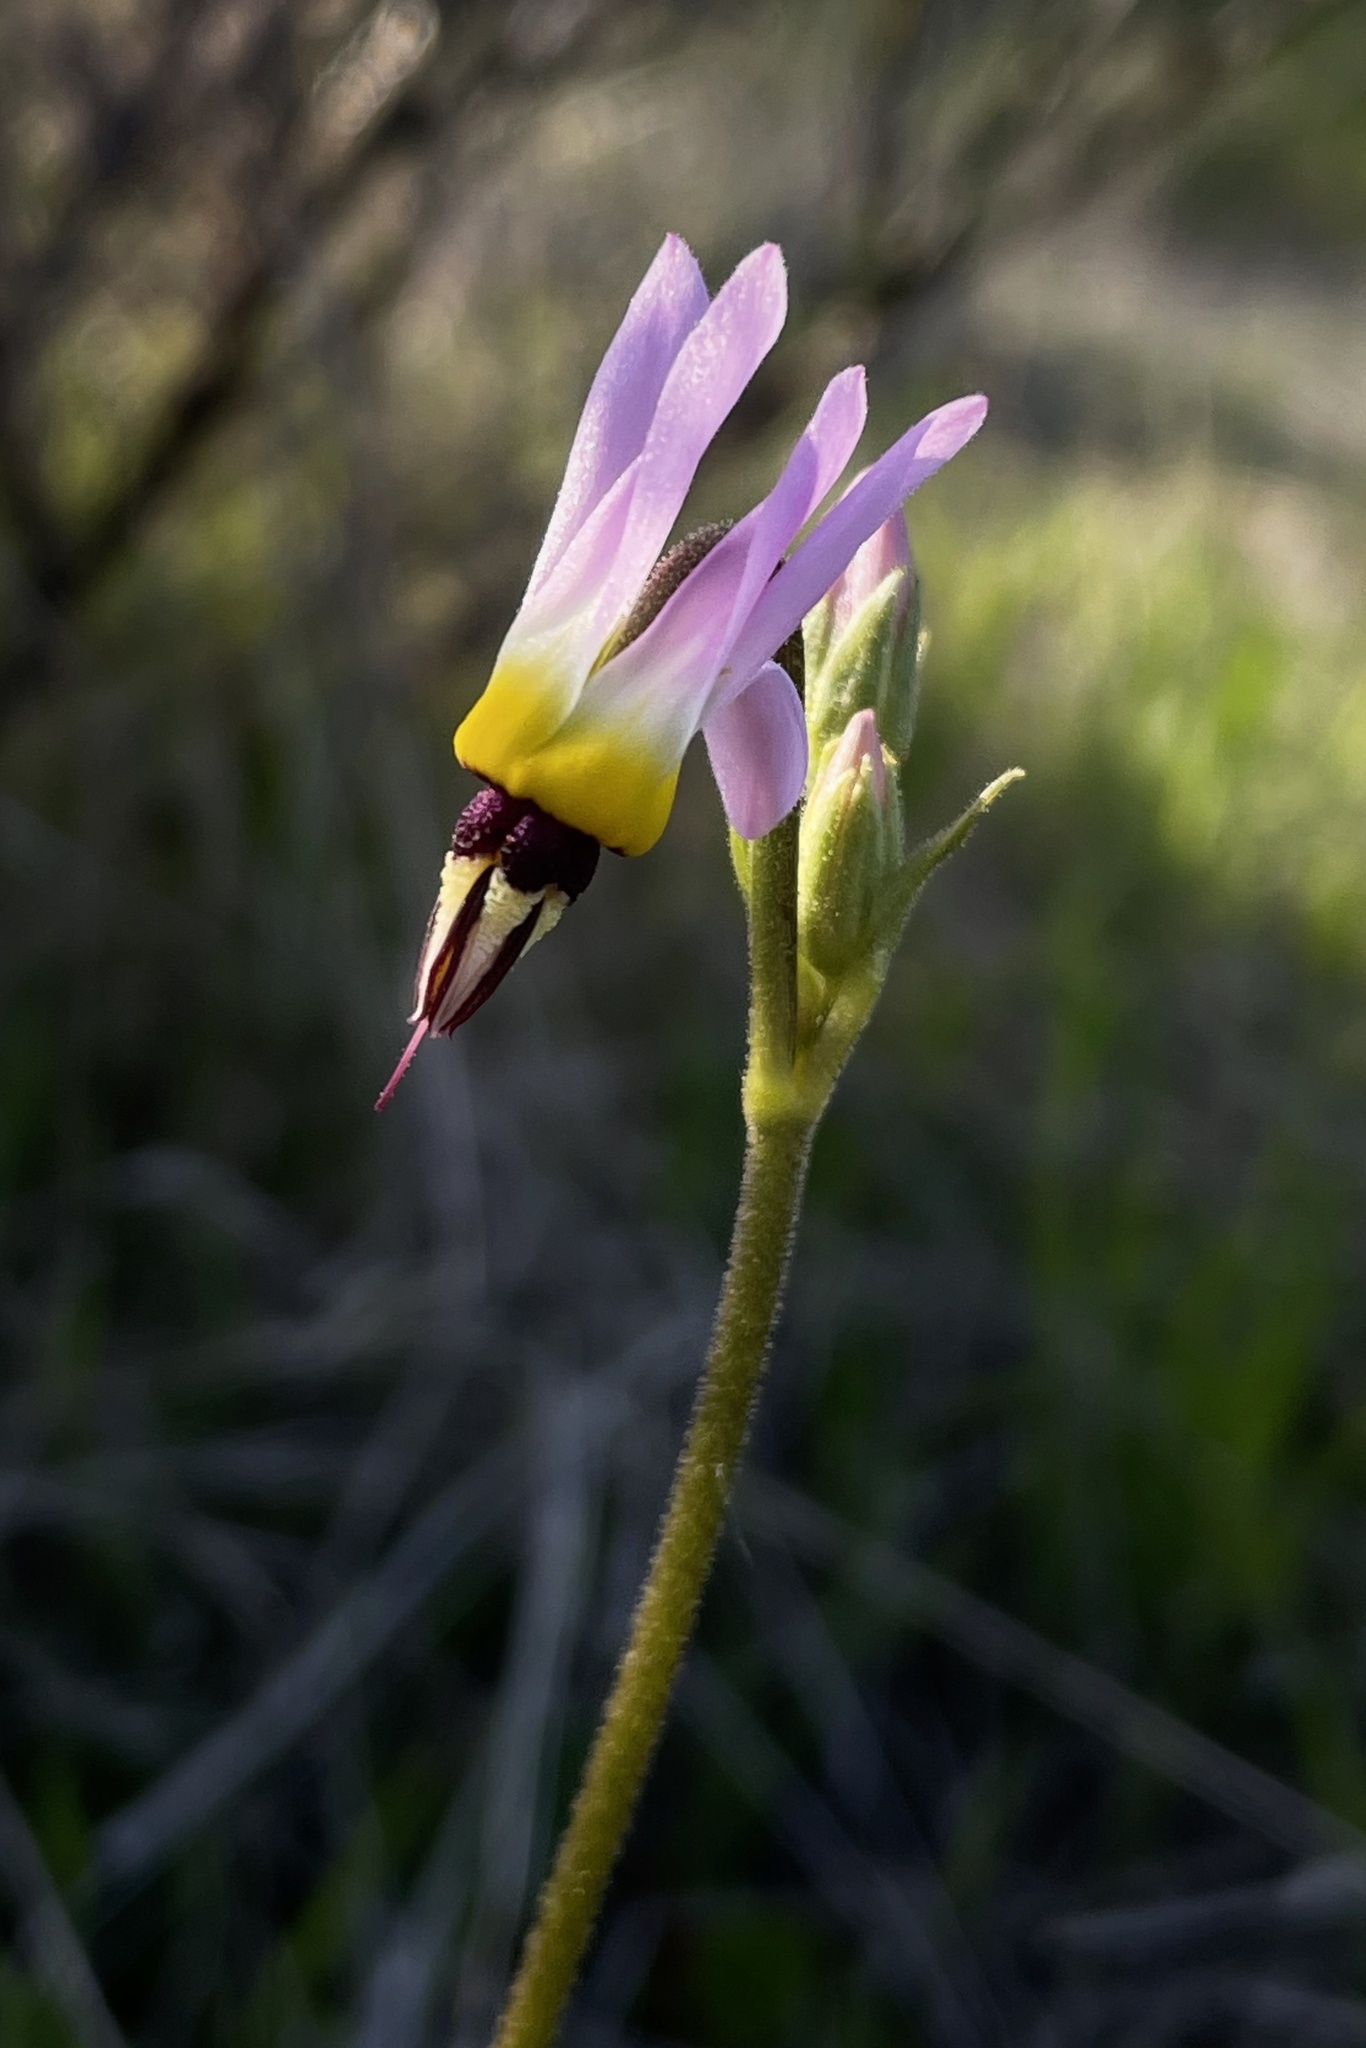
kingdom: Plantae
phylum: Tracheophyta
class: Magnoliopsida
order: Ericales
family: Primulaceae
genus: Dodecatheon
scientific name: Dodecatheon clevelandii
